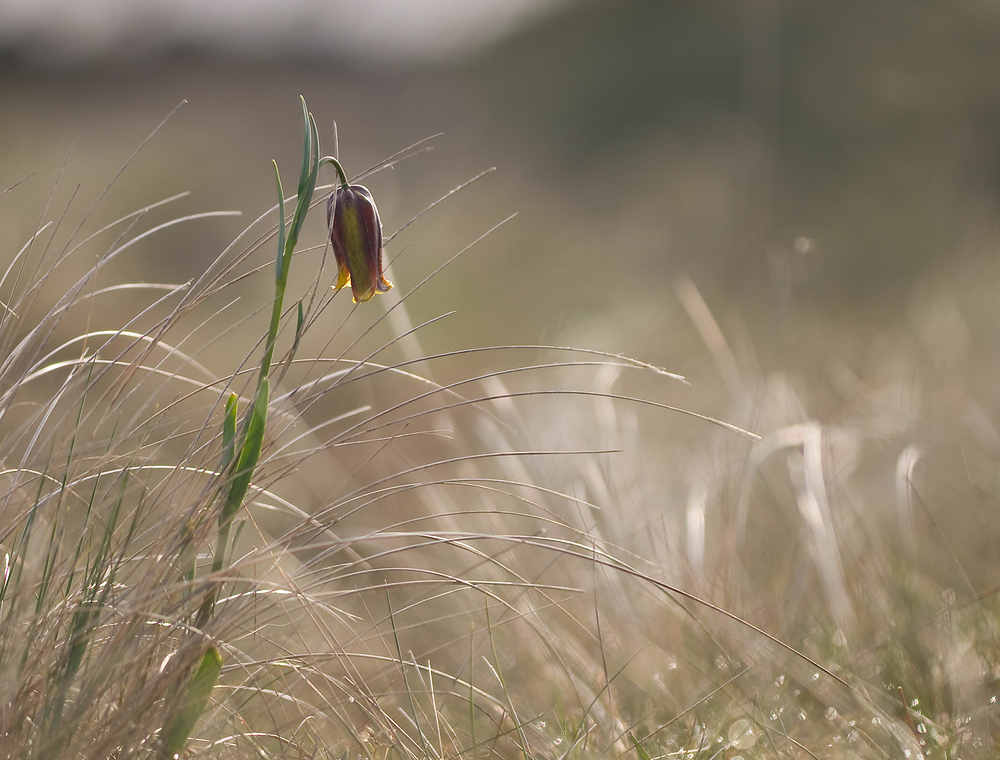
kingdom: Plantae
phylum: Tracheophyta
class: Liliopsida
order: Liliales
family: Liliaceae
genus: Fritillaria
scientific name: Fritillaria pyrenaica
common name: Pyrenean snake's-head
